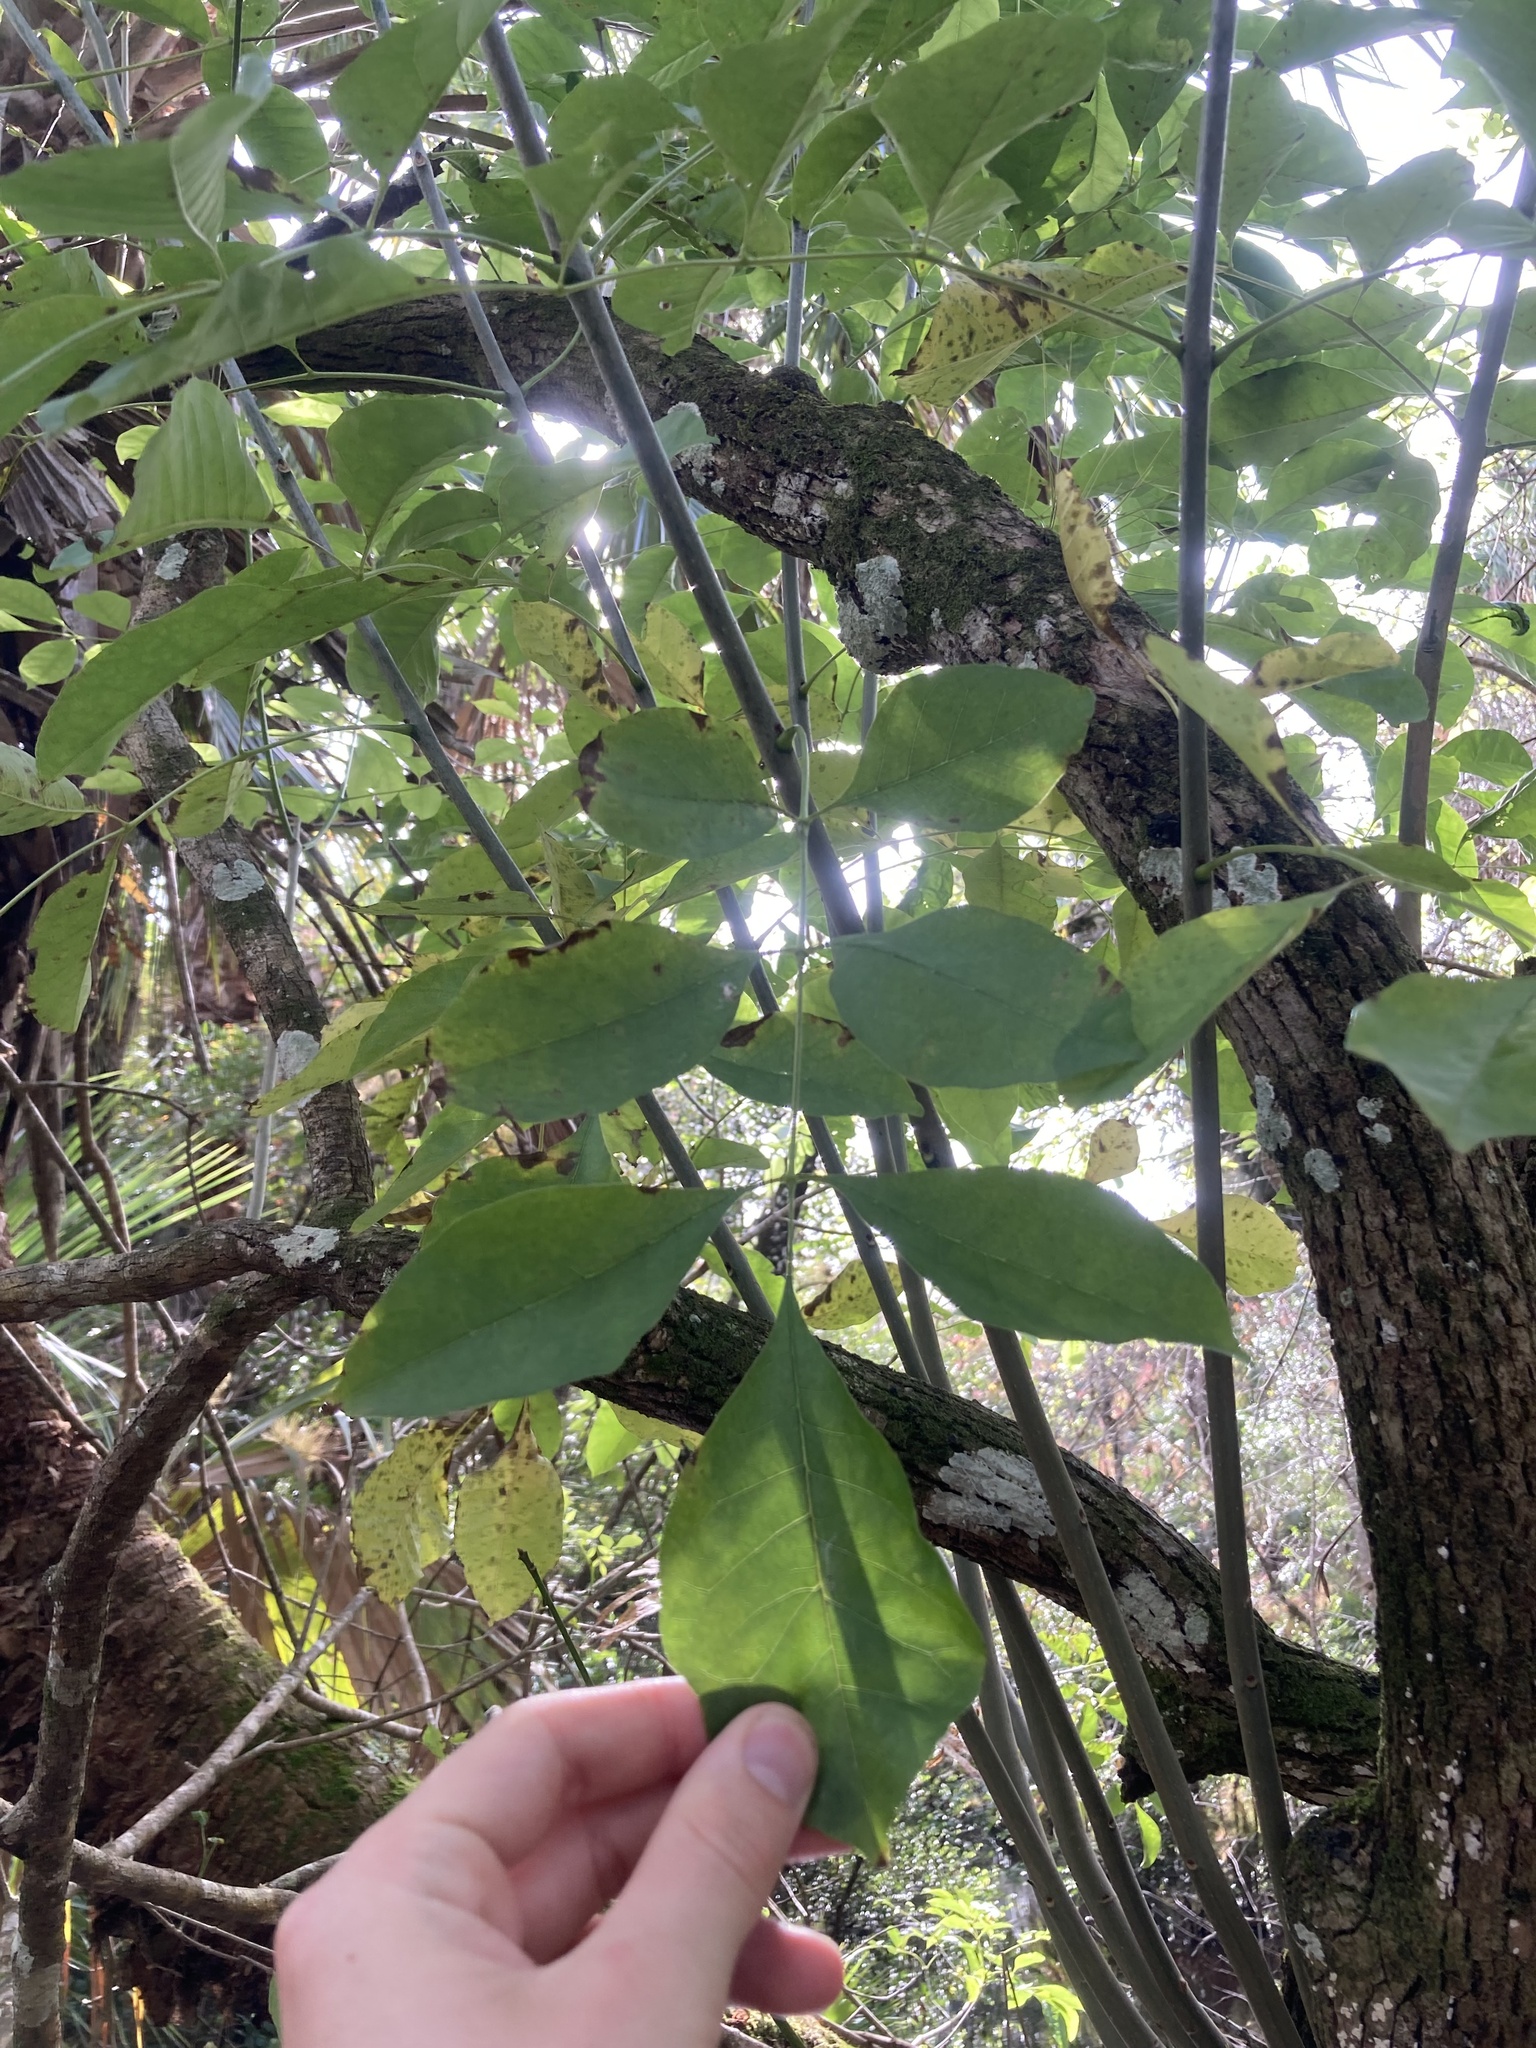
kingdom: Plantae
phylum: Tracheophyta
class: Magnoliopsida
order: Lamiales
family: Oleaceae
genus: Fraxinus
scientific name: Fraxinus caroliniana
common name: Carolina ash
